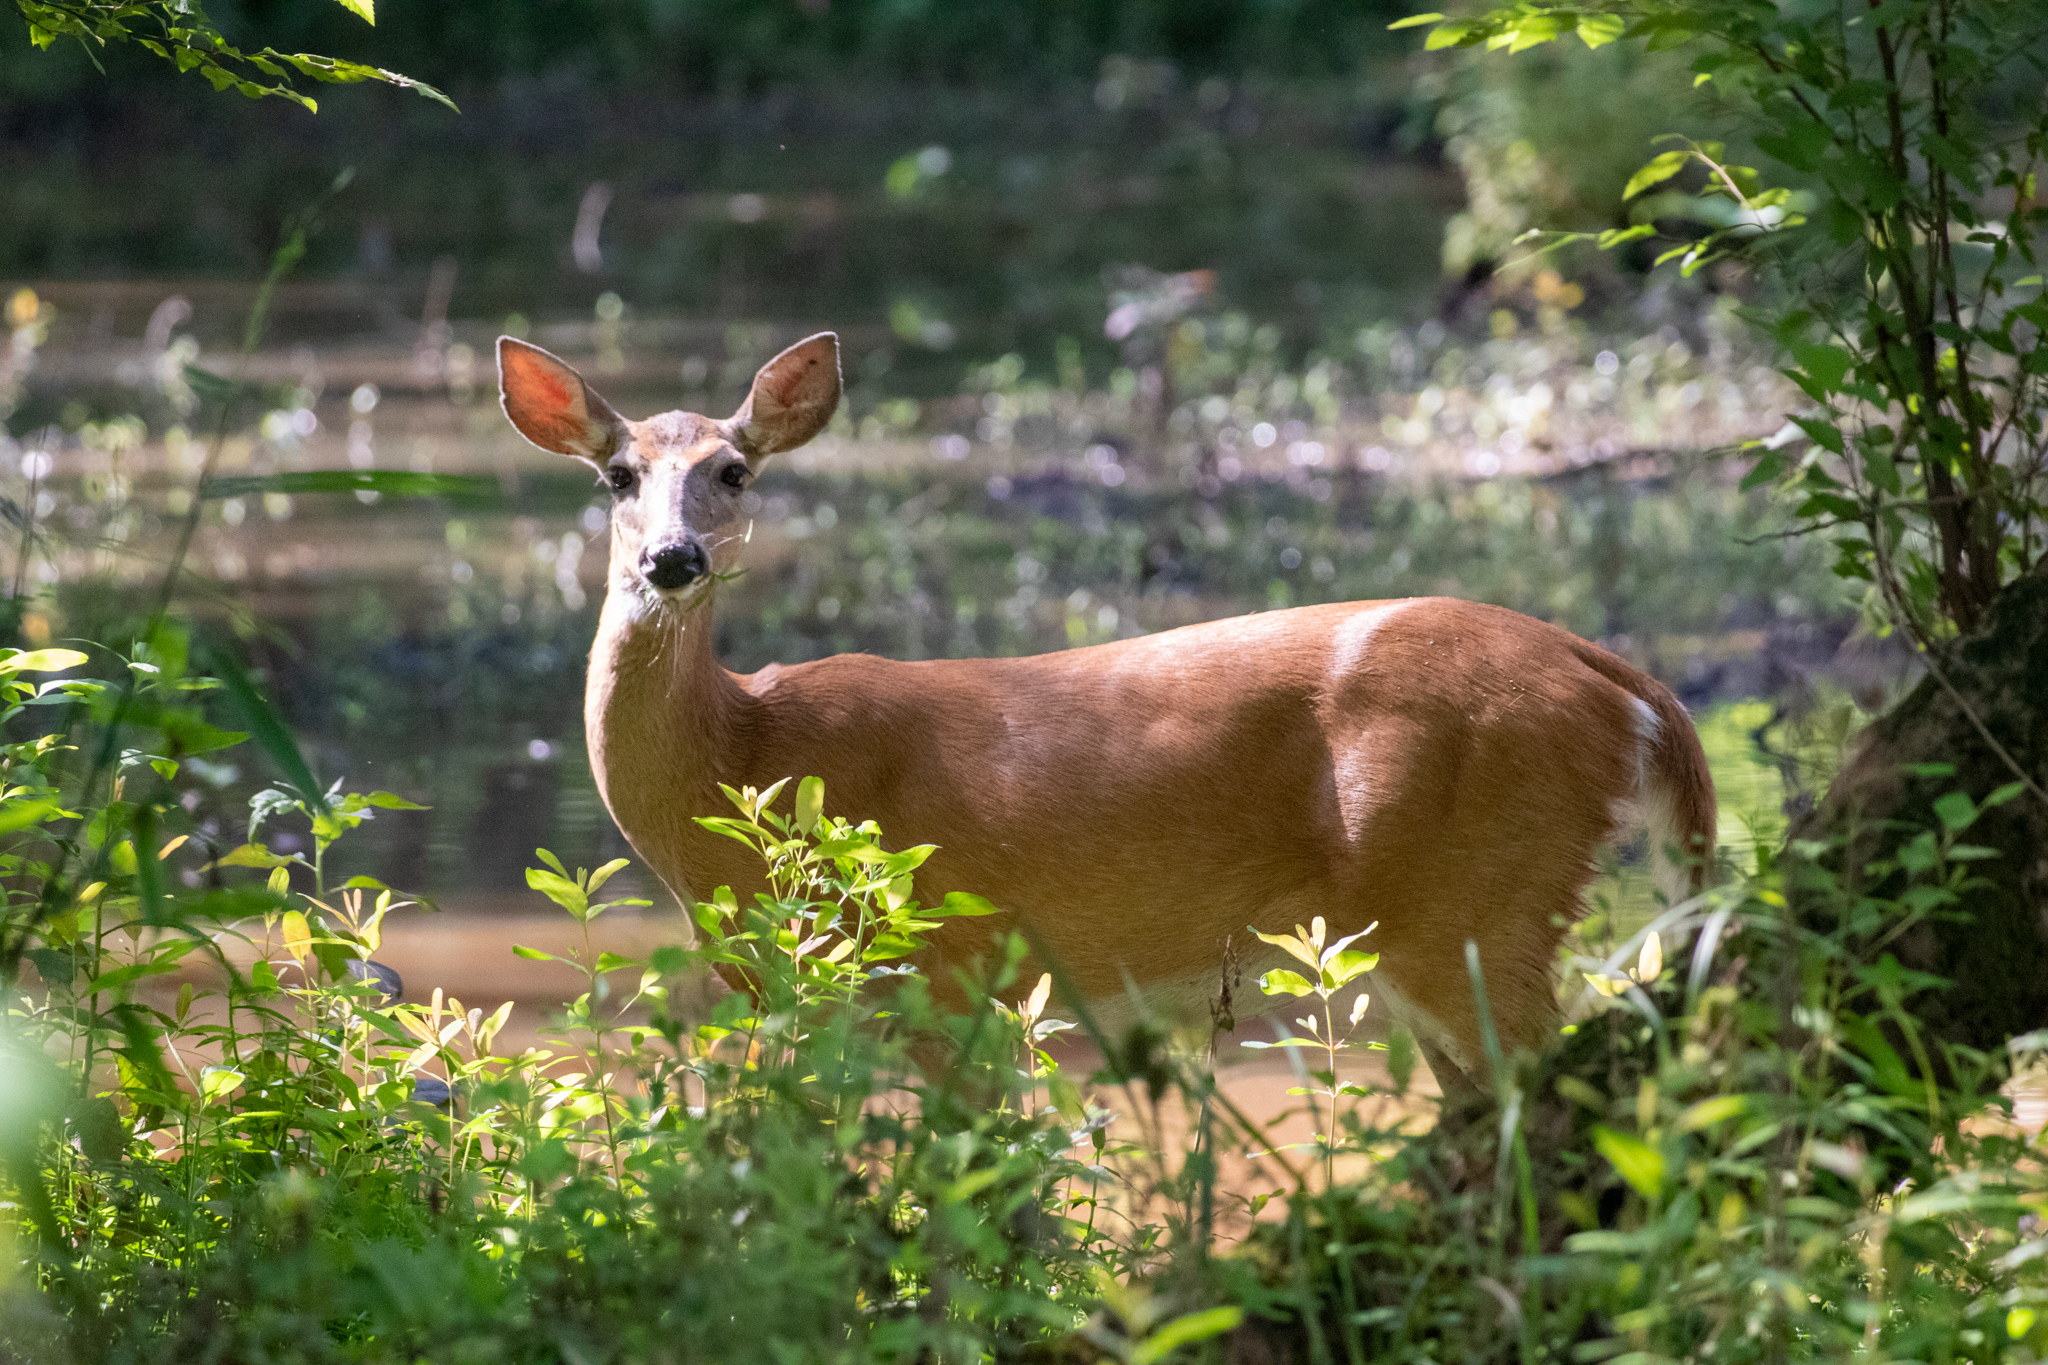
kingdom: Animalia
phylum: Chordata
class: Mammalia
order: Artiodactyla
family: Cervidae
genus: Odocoileus
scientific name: Odocoileus virginianus
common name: White-tailed deer
